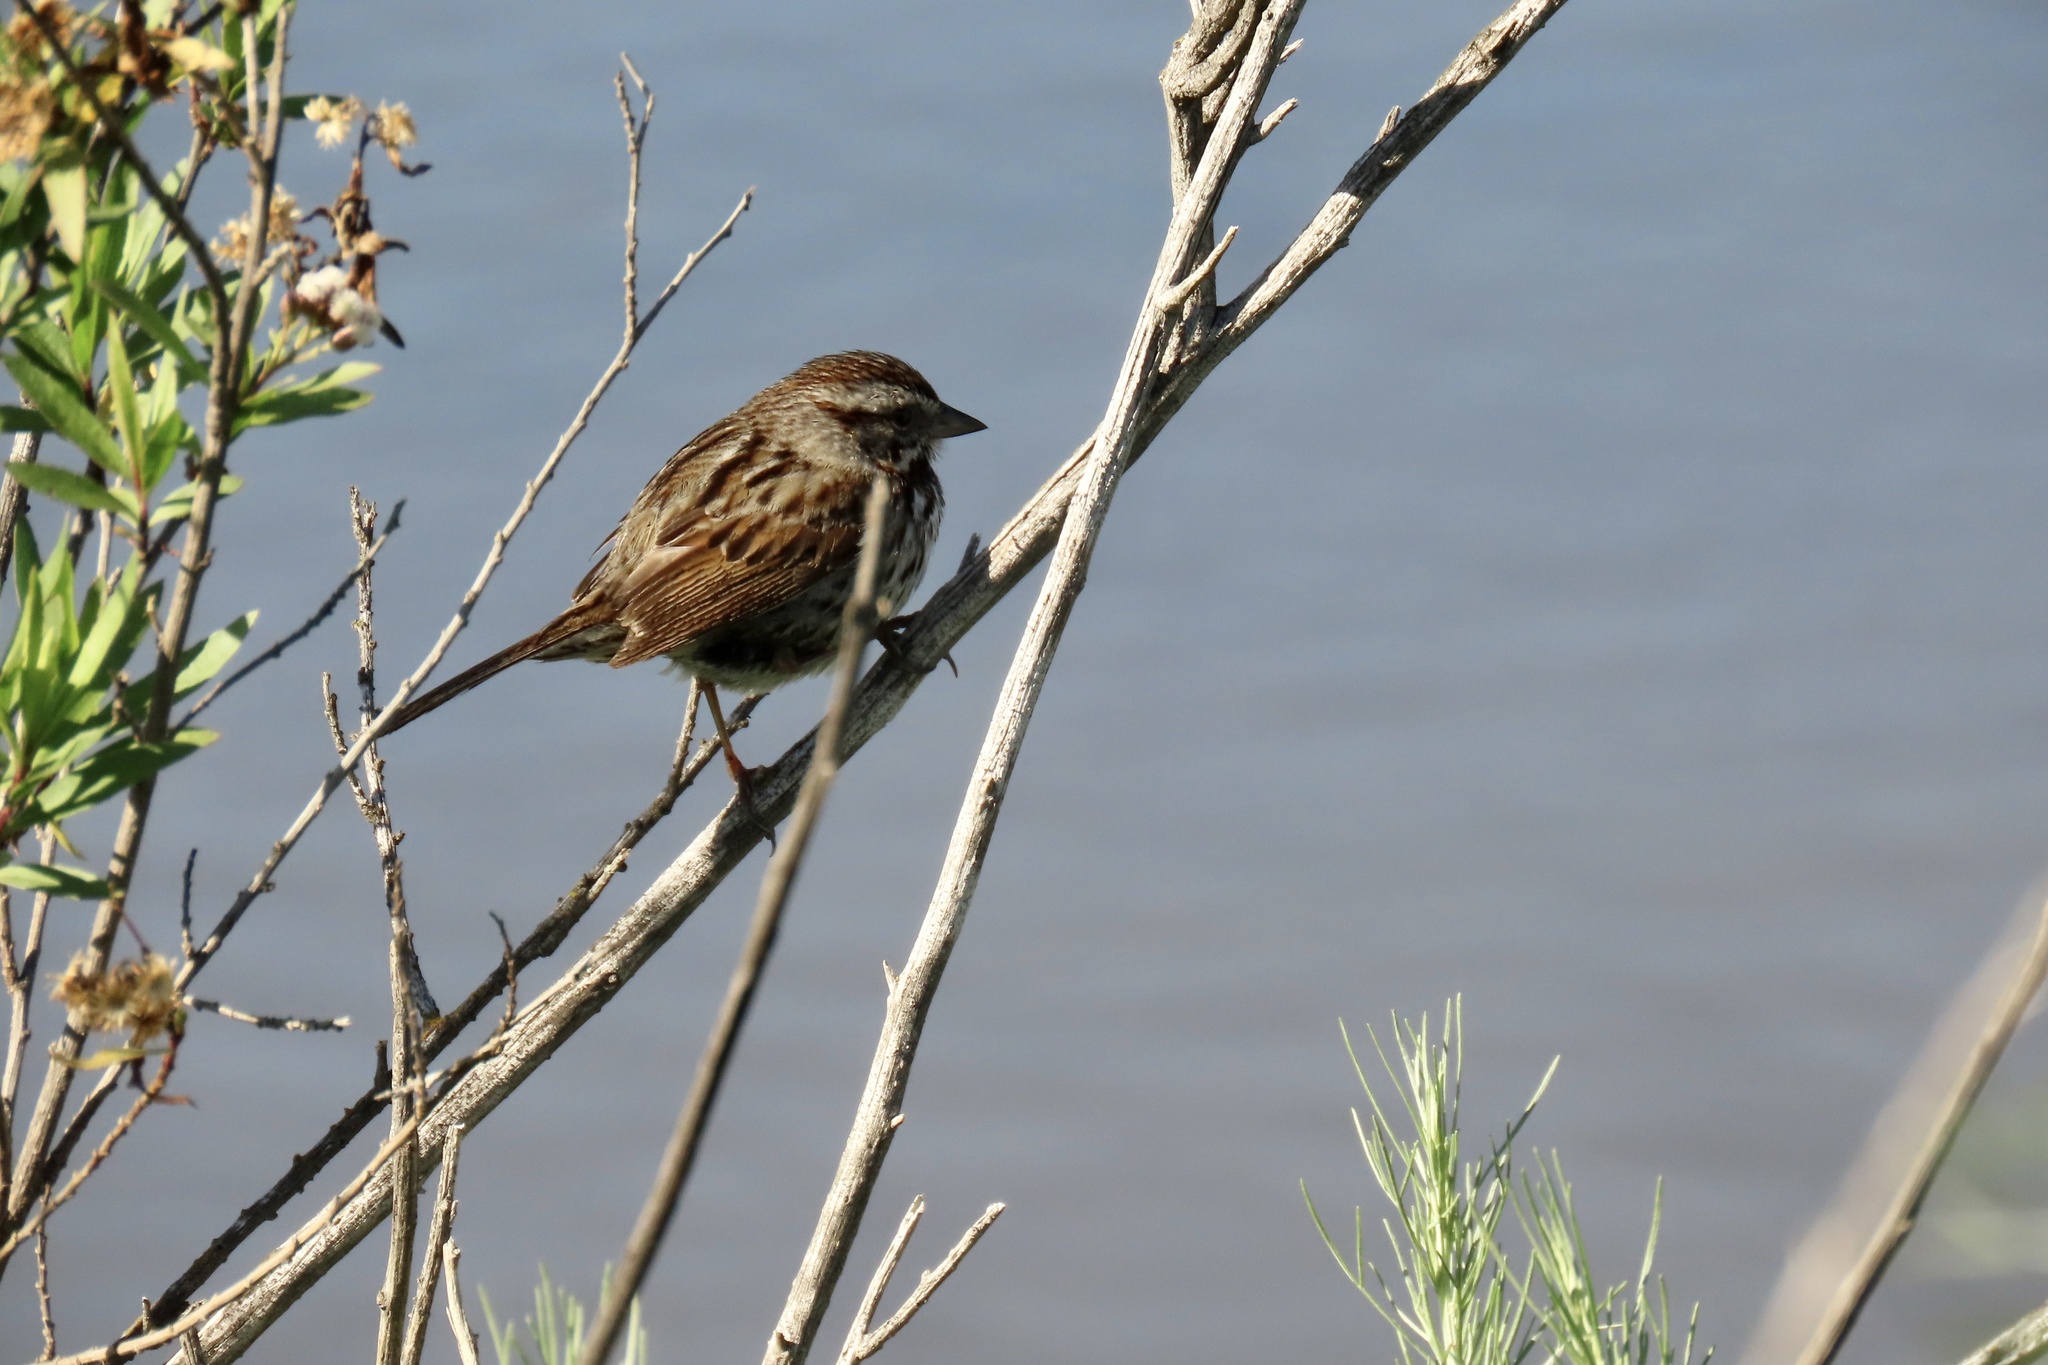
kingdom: Animalia
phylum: Chordata
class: Aves
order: Passeriformes
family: Passerellidae
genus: Melospiza
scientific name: Melospiza melodia
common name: Song sparrow
